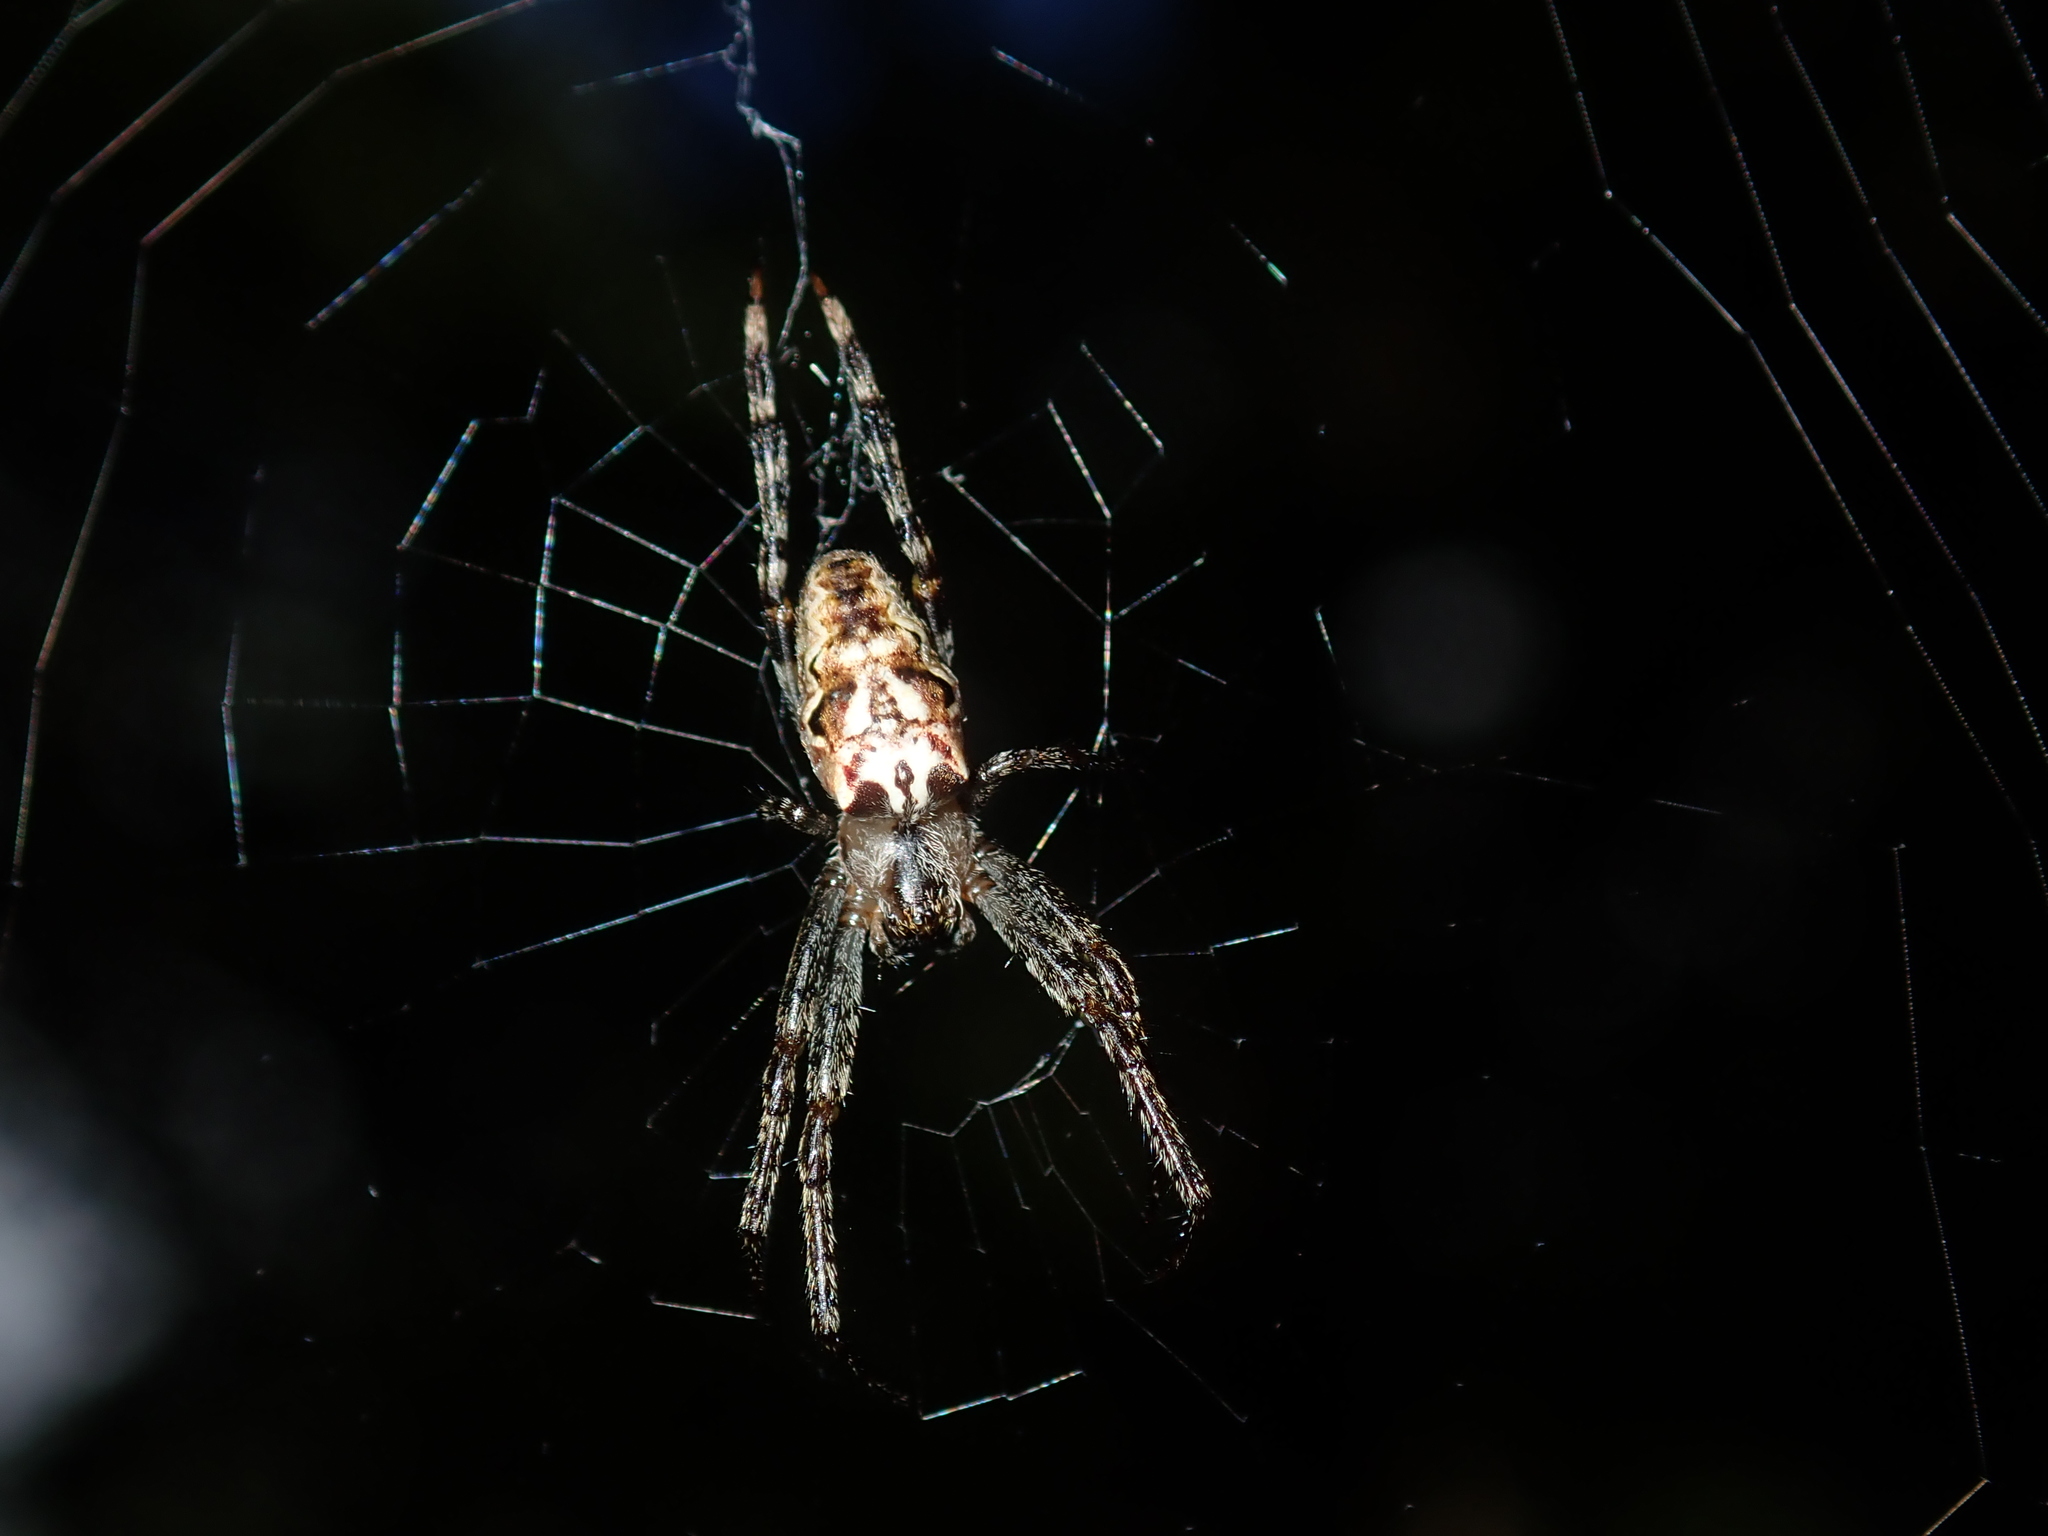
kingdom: Animalia
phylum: Arthropoda
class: Arachnida
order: Araneae
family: Araneidae
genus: Plebs
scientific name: Plebs eburnus
